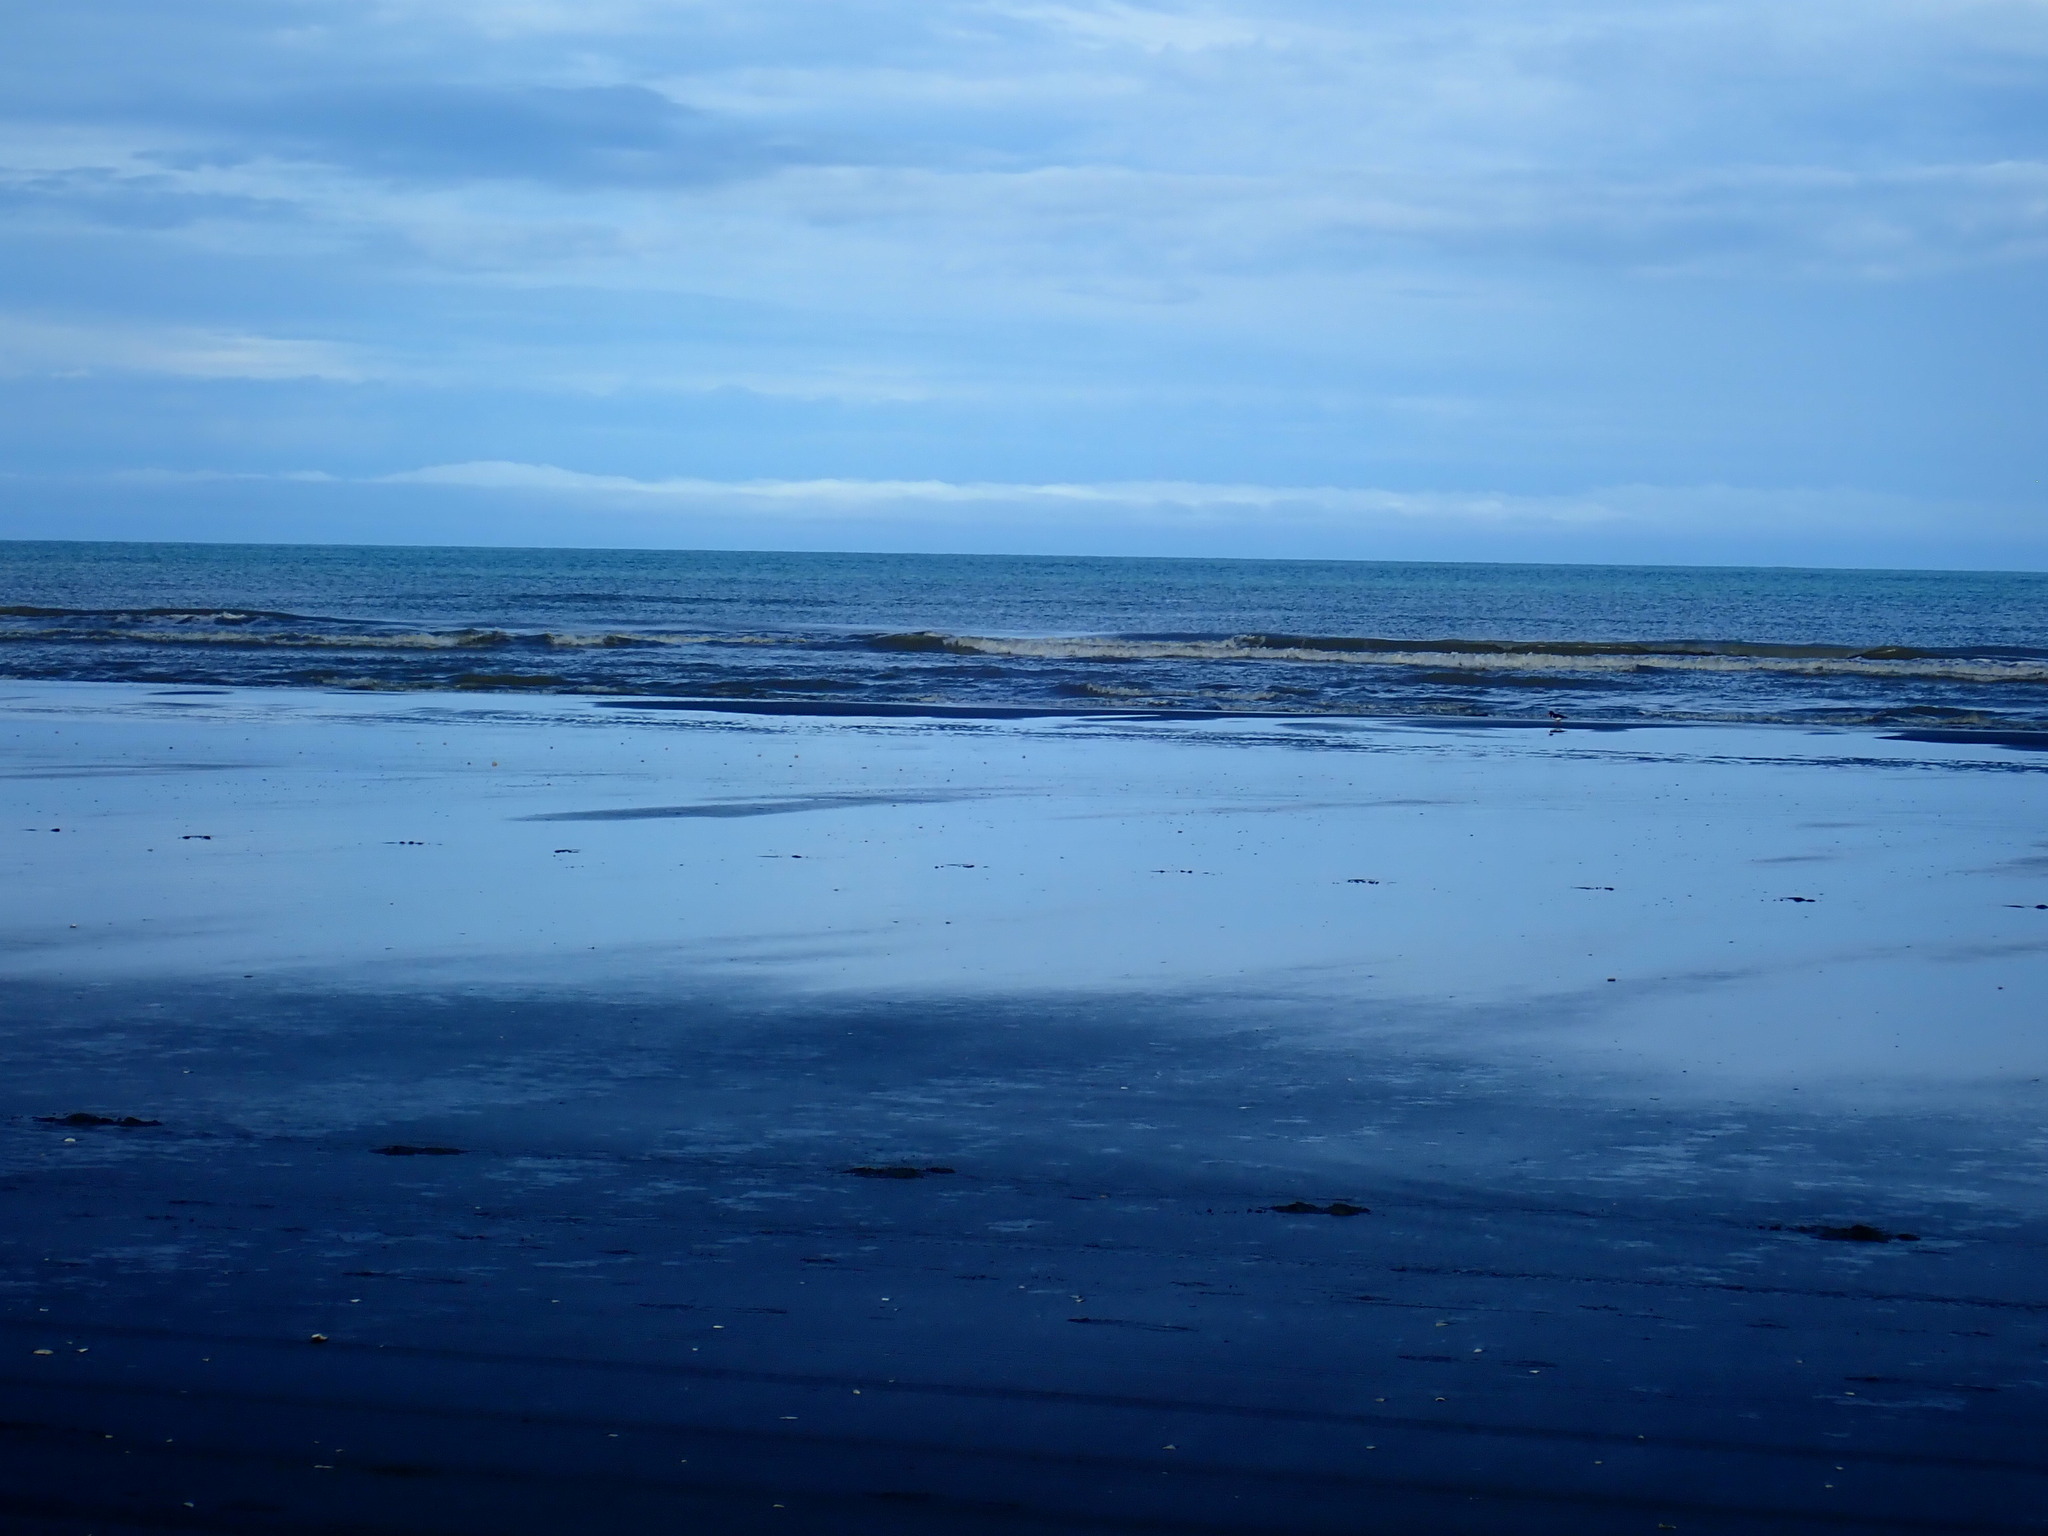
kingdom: Animalia
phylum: Chordata
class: Aves
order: Charadriiformes
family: Haematopodidae
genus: Haematopus
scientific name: Haematopus finschi
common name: South island oystercatcher
